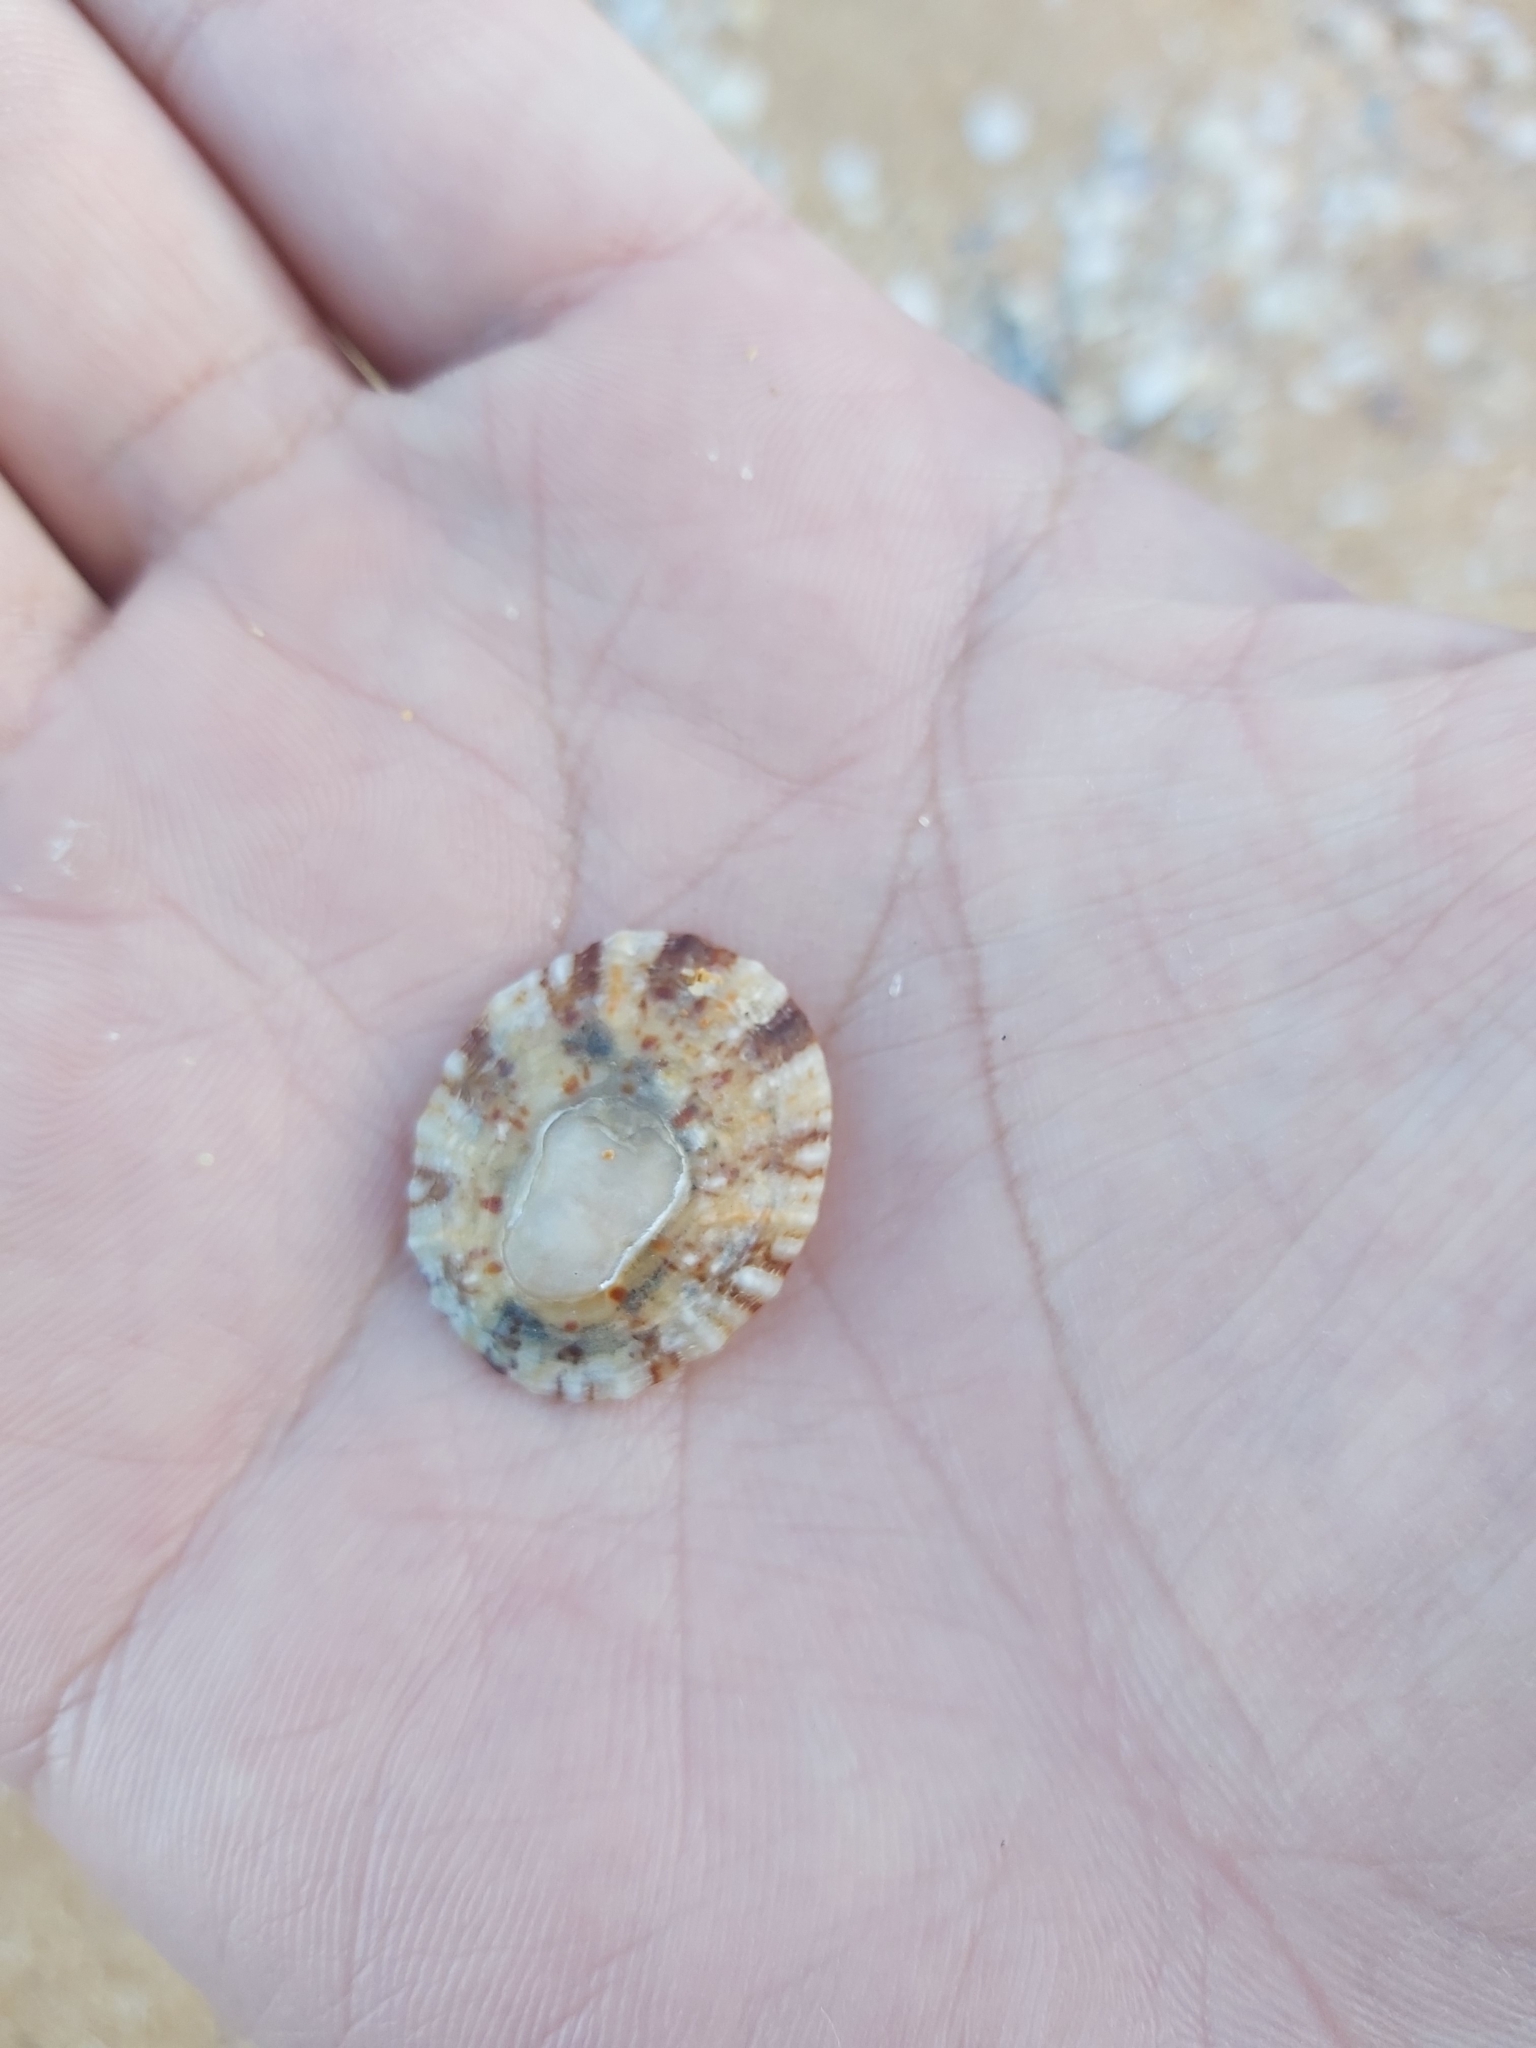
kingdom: Animalia
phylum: Mollusca
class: Gastropoda
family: Nacellidae
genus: Cellana
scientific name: Cellana tramoserica
